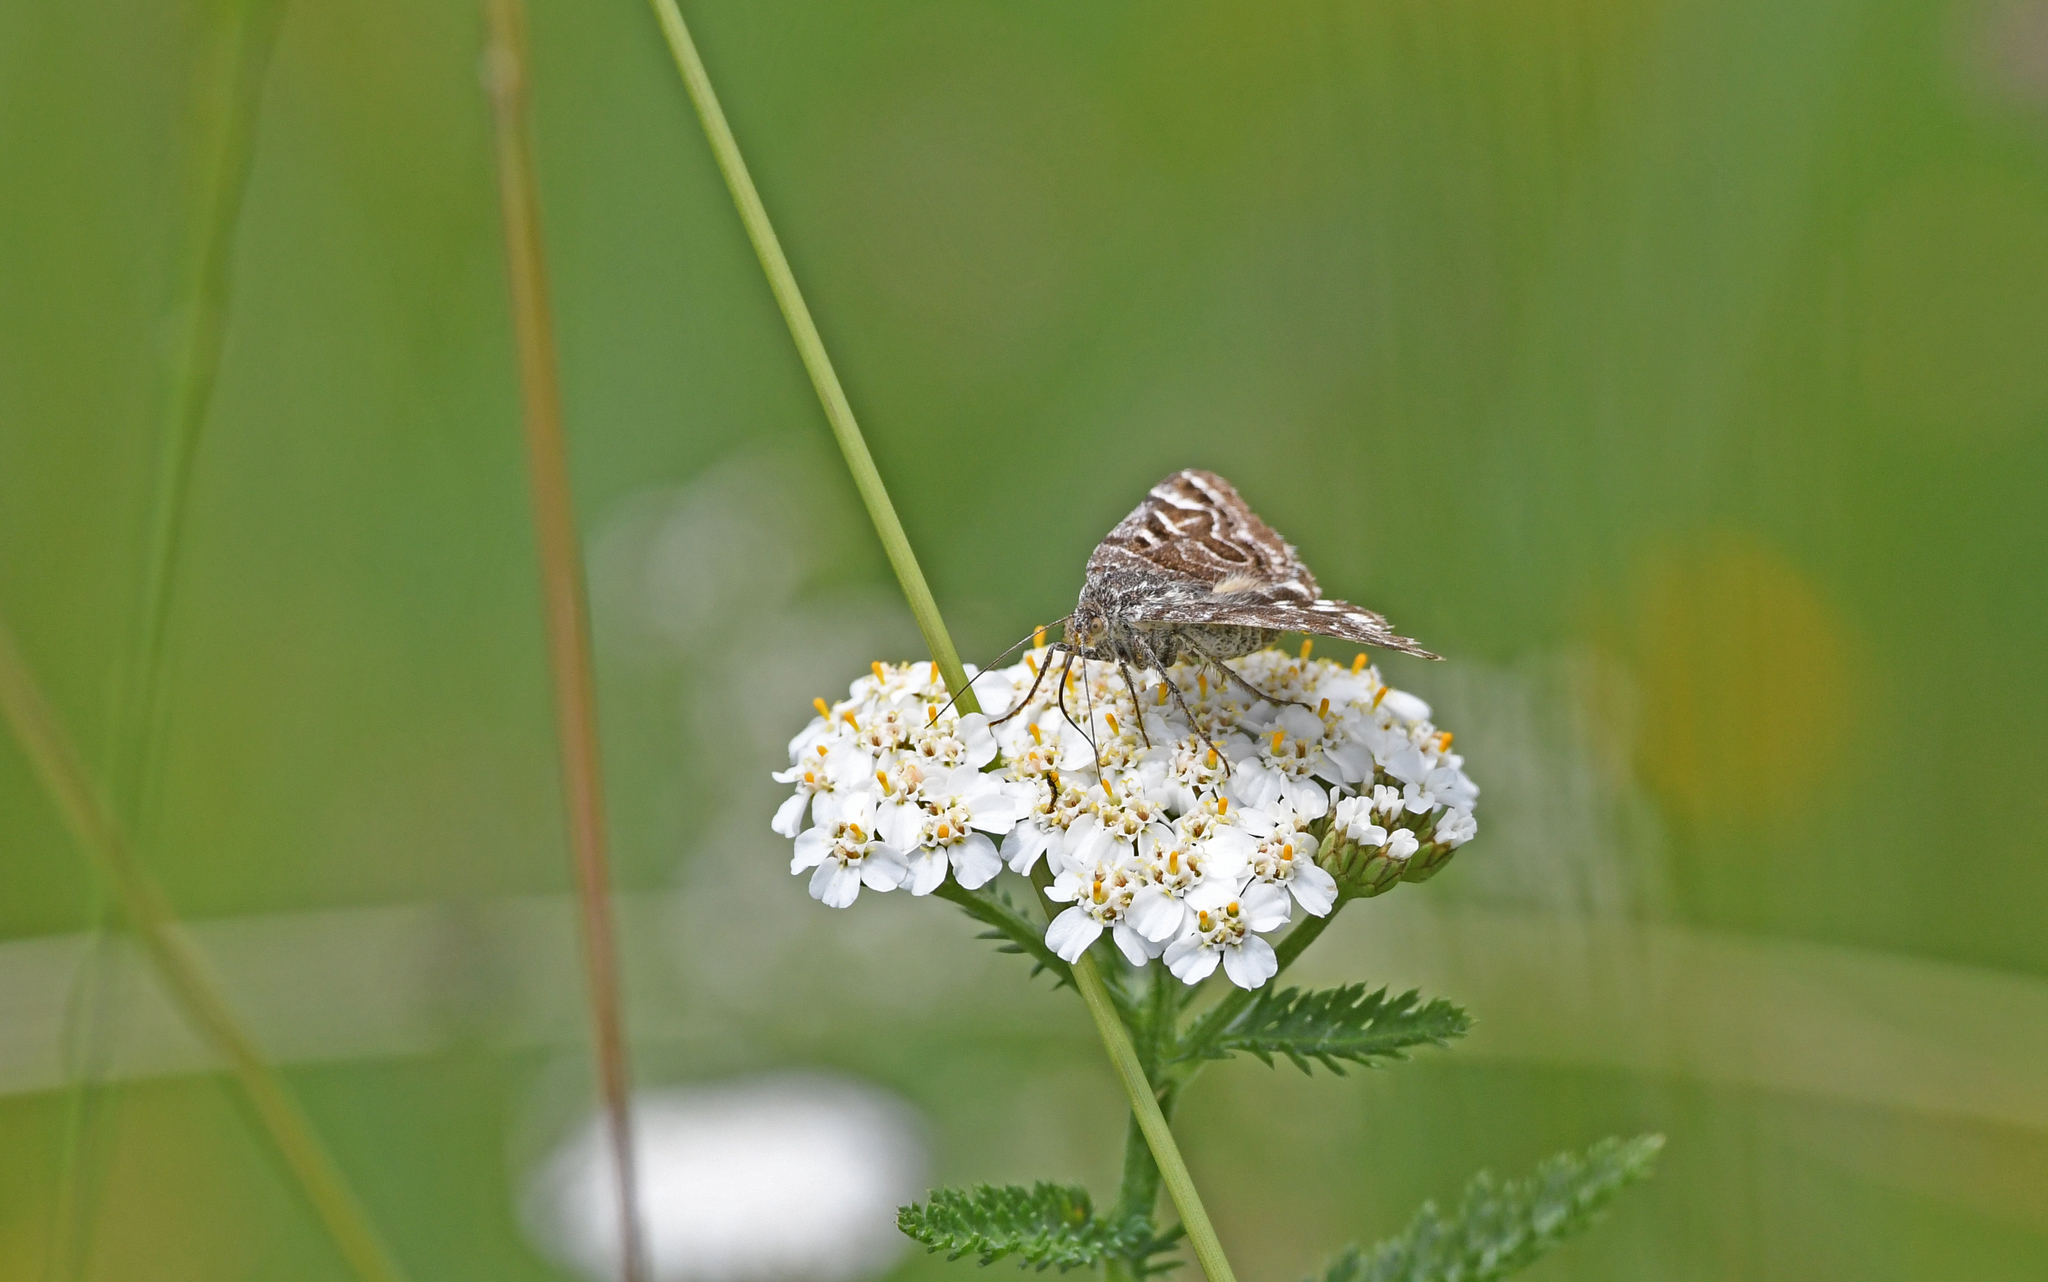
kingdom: Animalia
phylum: Arthropoda
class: Insecta
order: Lepidoptera
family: Erebidae
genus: Callistege
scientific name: Callistege mi
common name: Mother shipton
